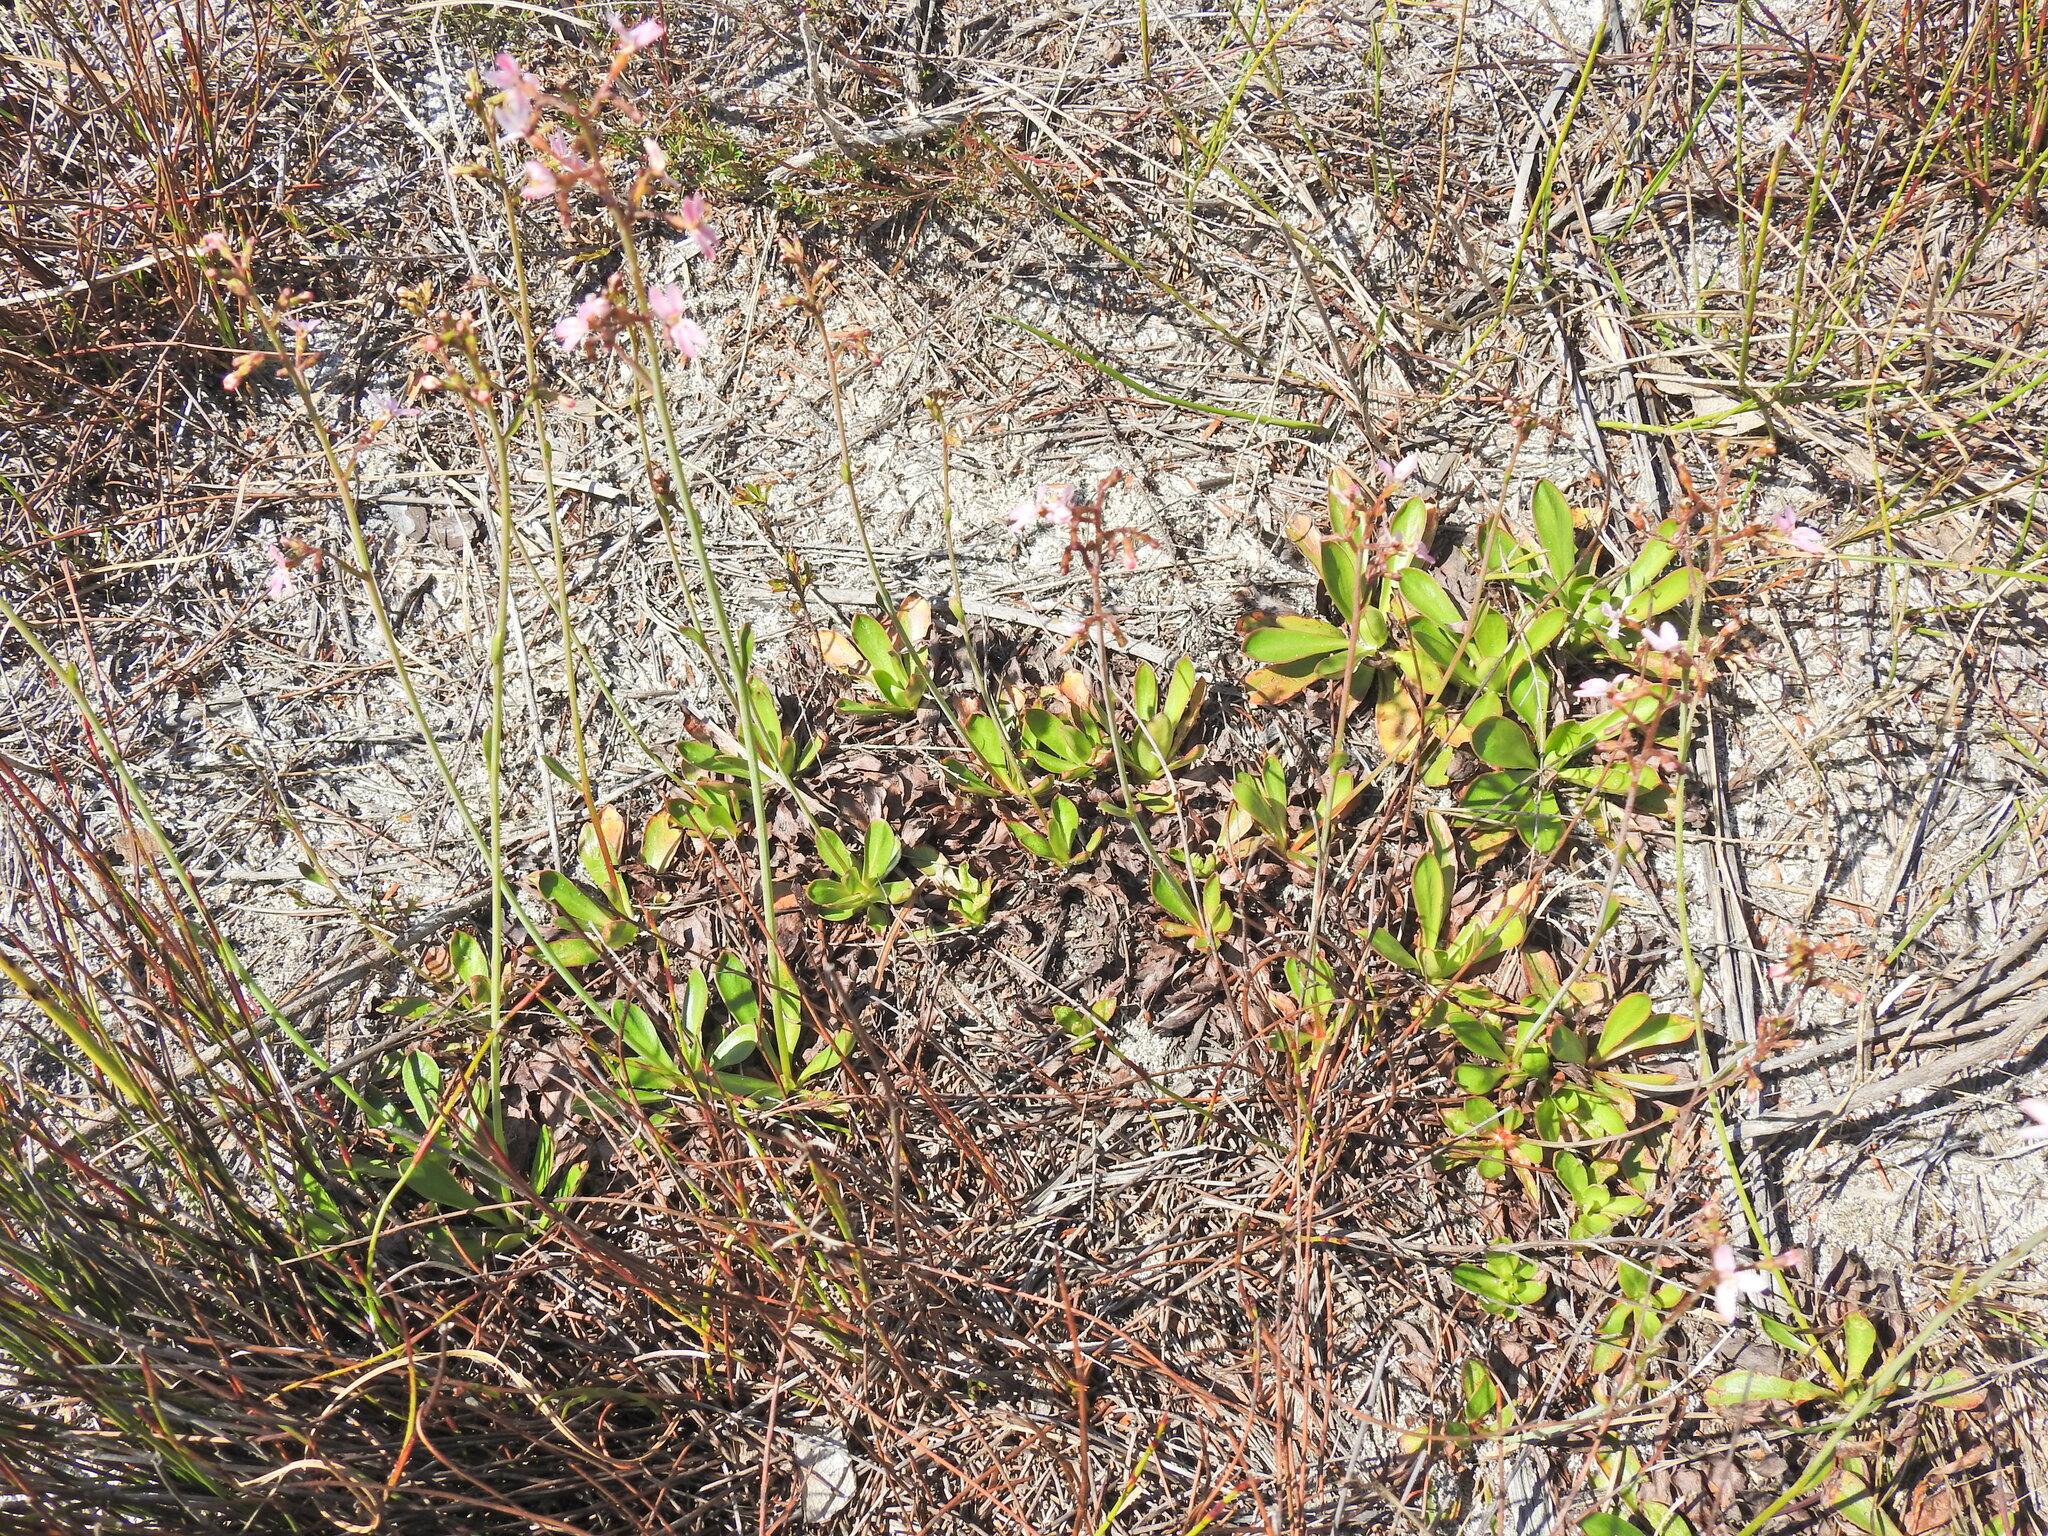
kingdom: Plantae
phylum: Tracheophyta
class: Magnoliopsida
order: Asterales
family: Stylidiaceae
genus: Stylidium
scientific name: Stylidium ornatum
